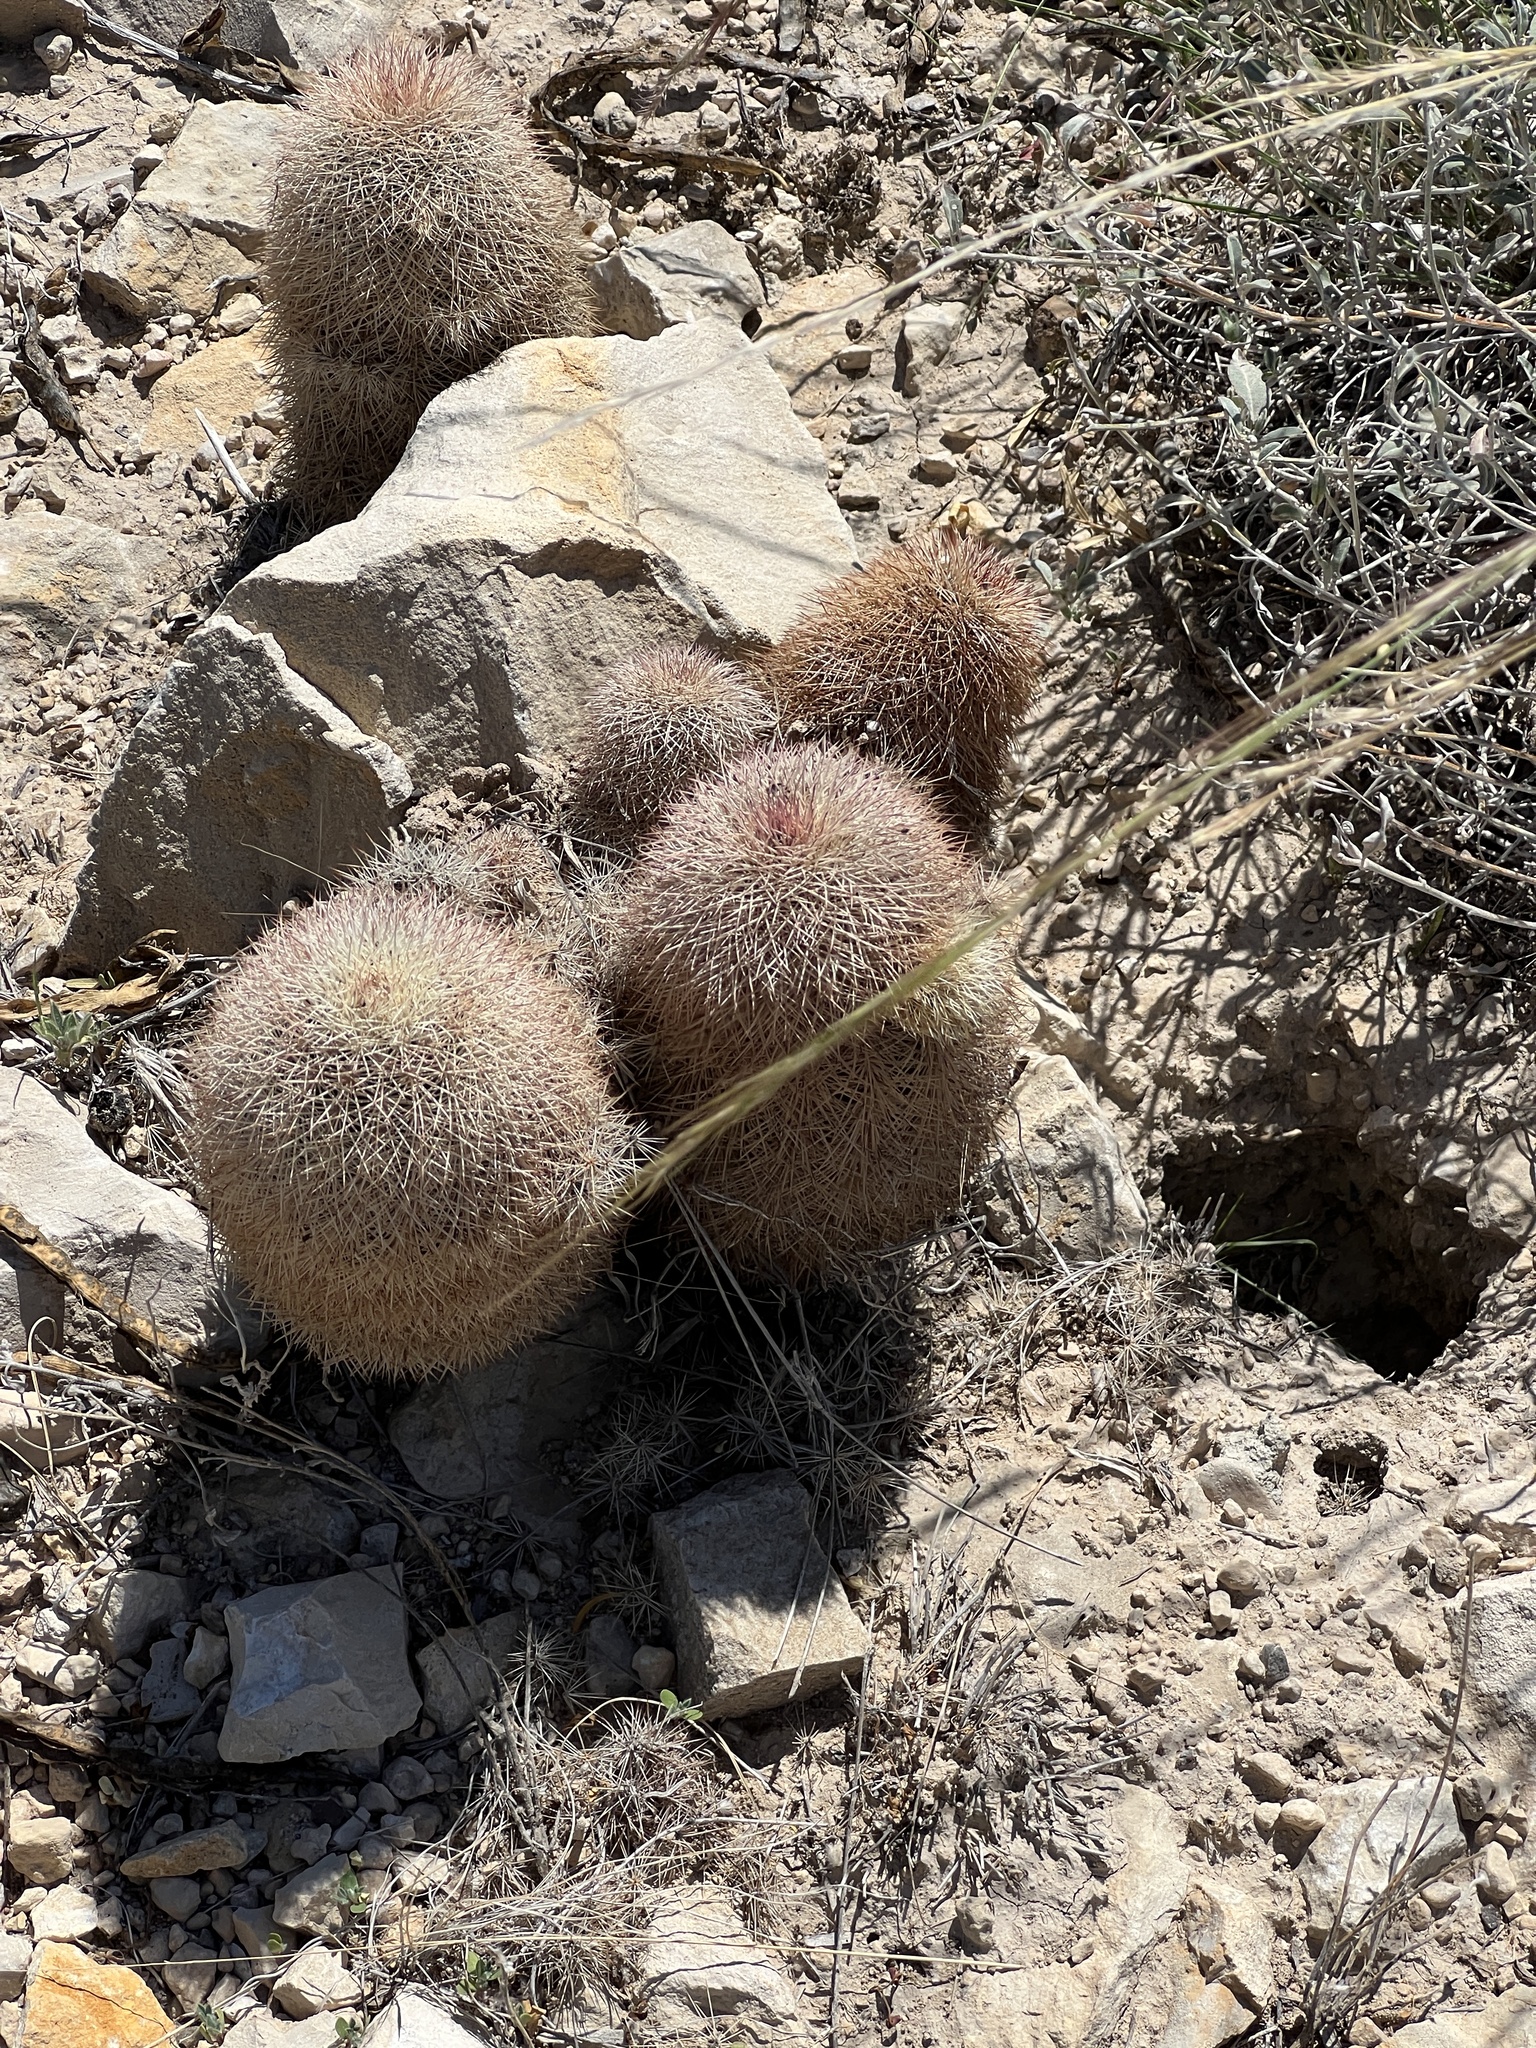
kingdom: Plantae
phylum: Tracheophyta
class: Magnoliopsida
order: Caryophyllales
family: Cactaceae
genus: Echinocereus
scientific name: Echinocereus dasyacanthus
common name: Spiny hedgehog cactus
